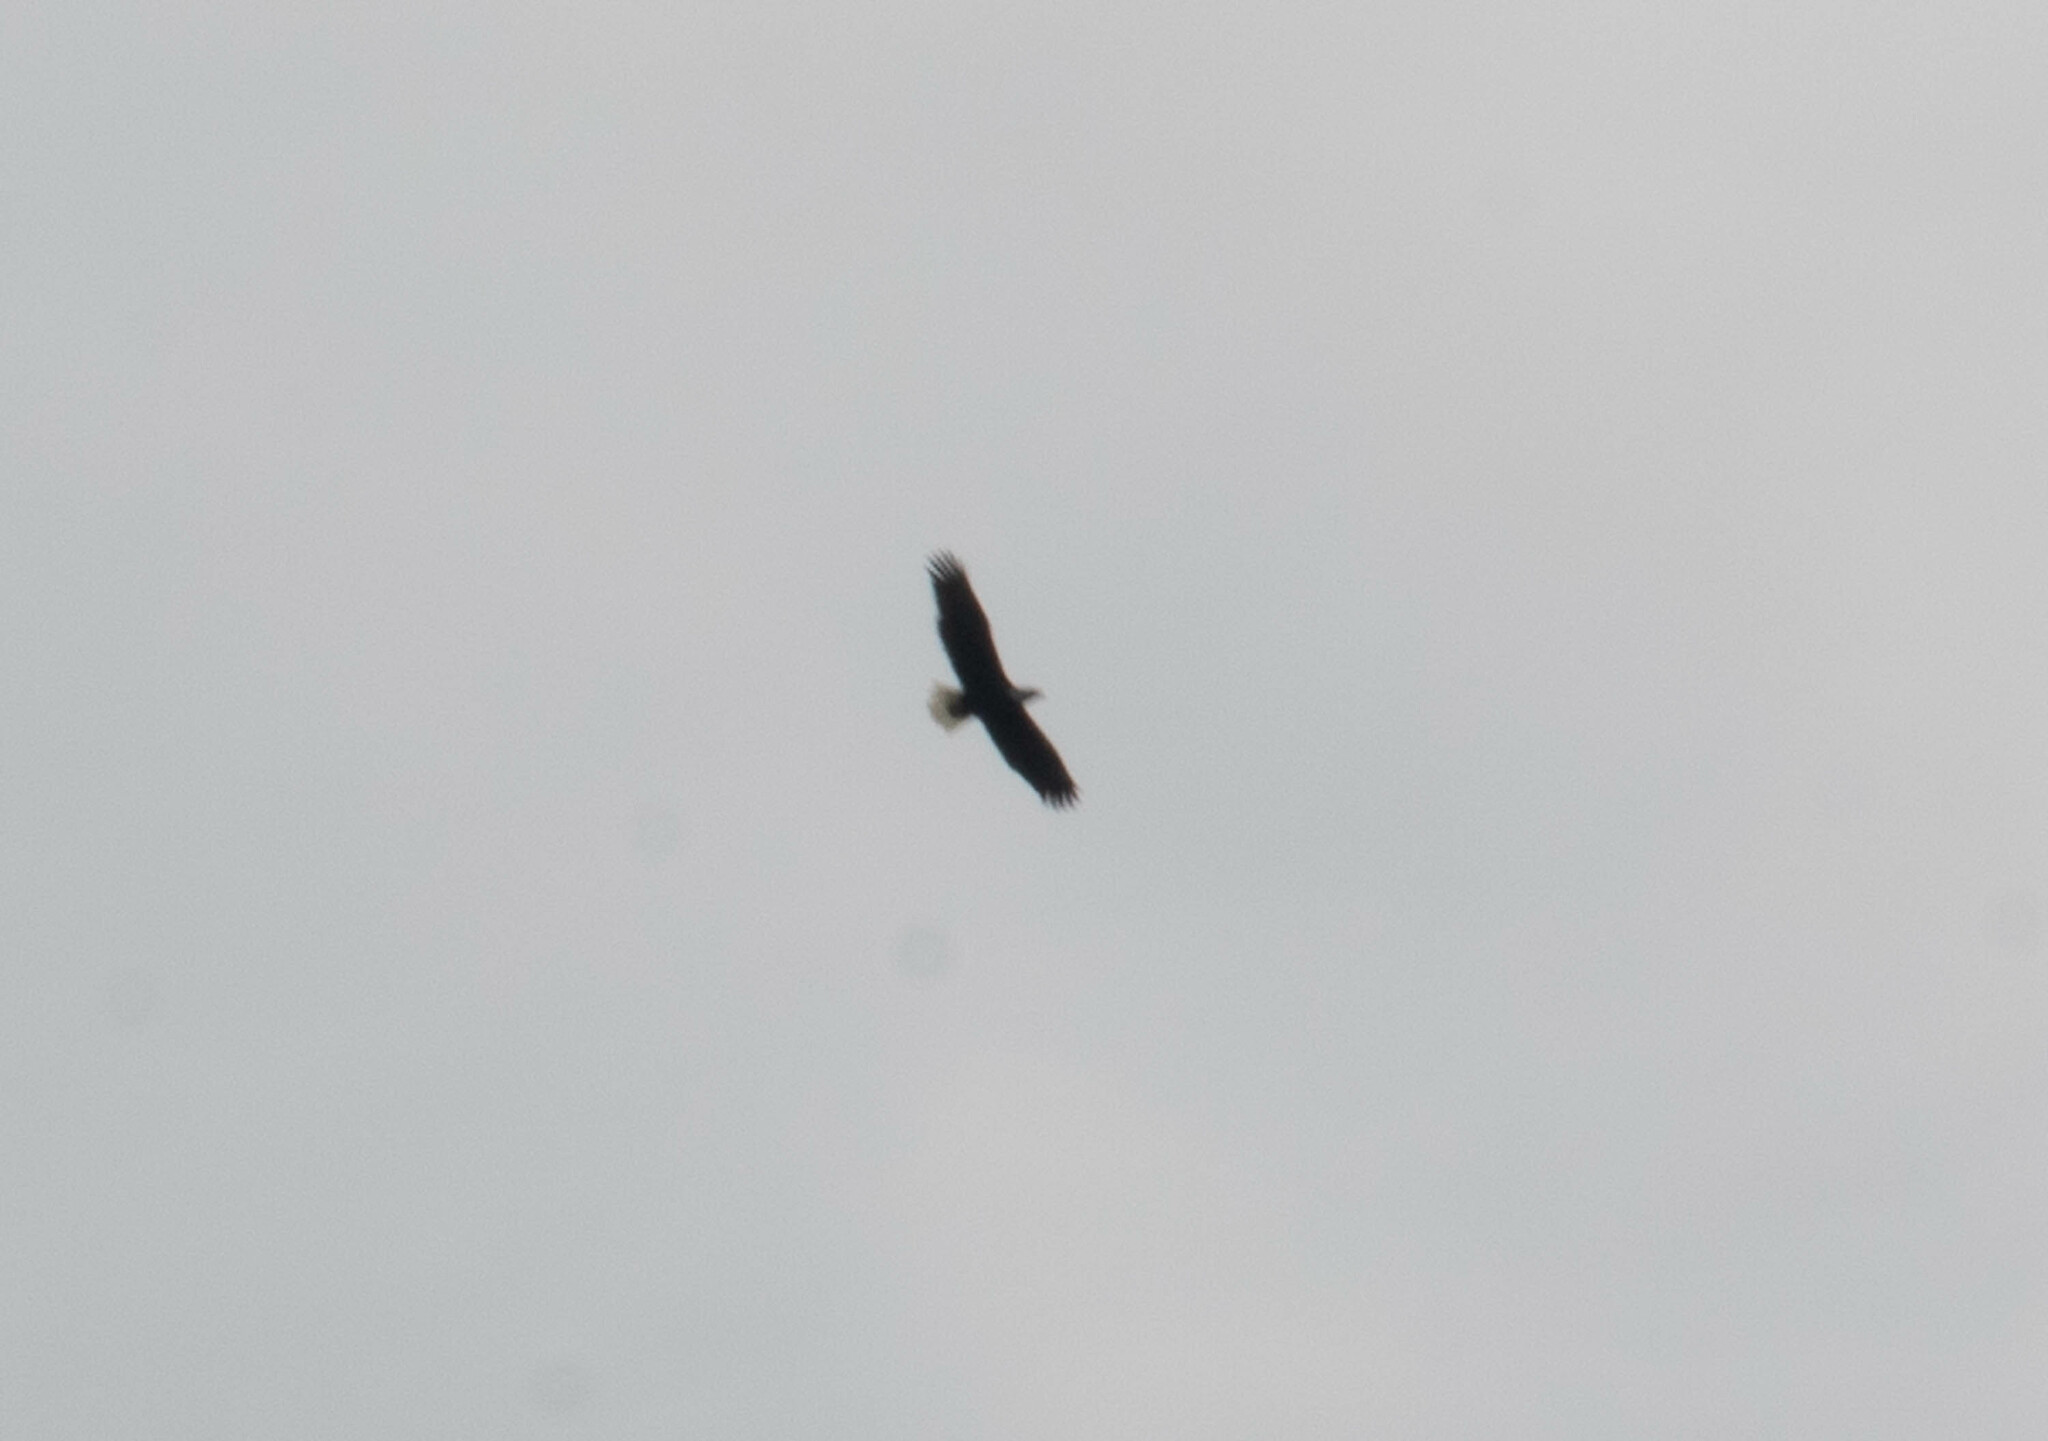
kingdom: Animalia
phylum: Chordata
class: Aves
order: Accipitriformes
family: Accipitridae
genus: Haliaeetus
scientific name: Haliaeetus leucocephalus
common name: Bald eagle
